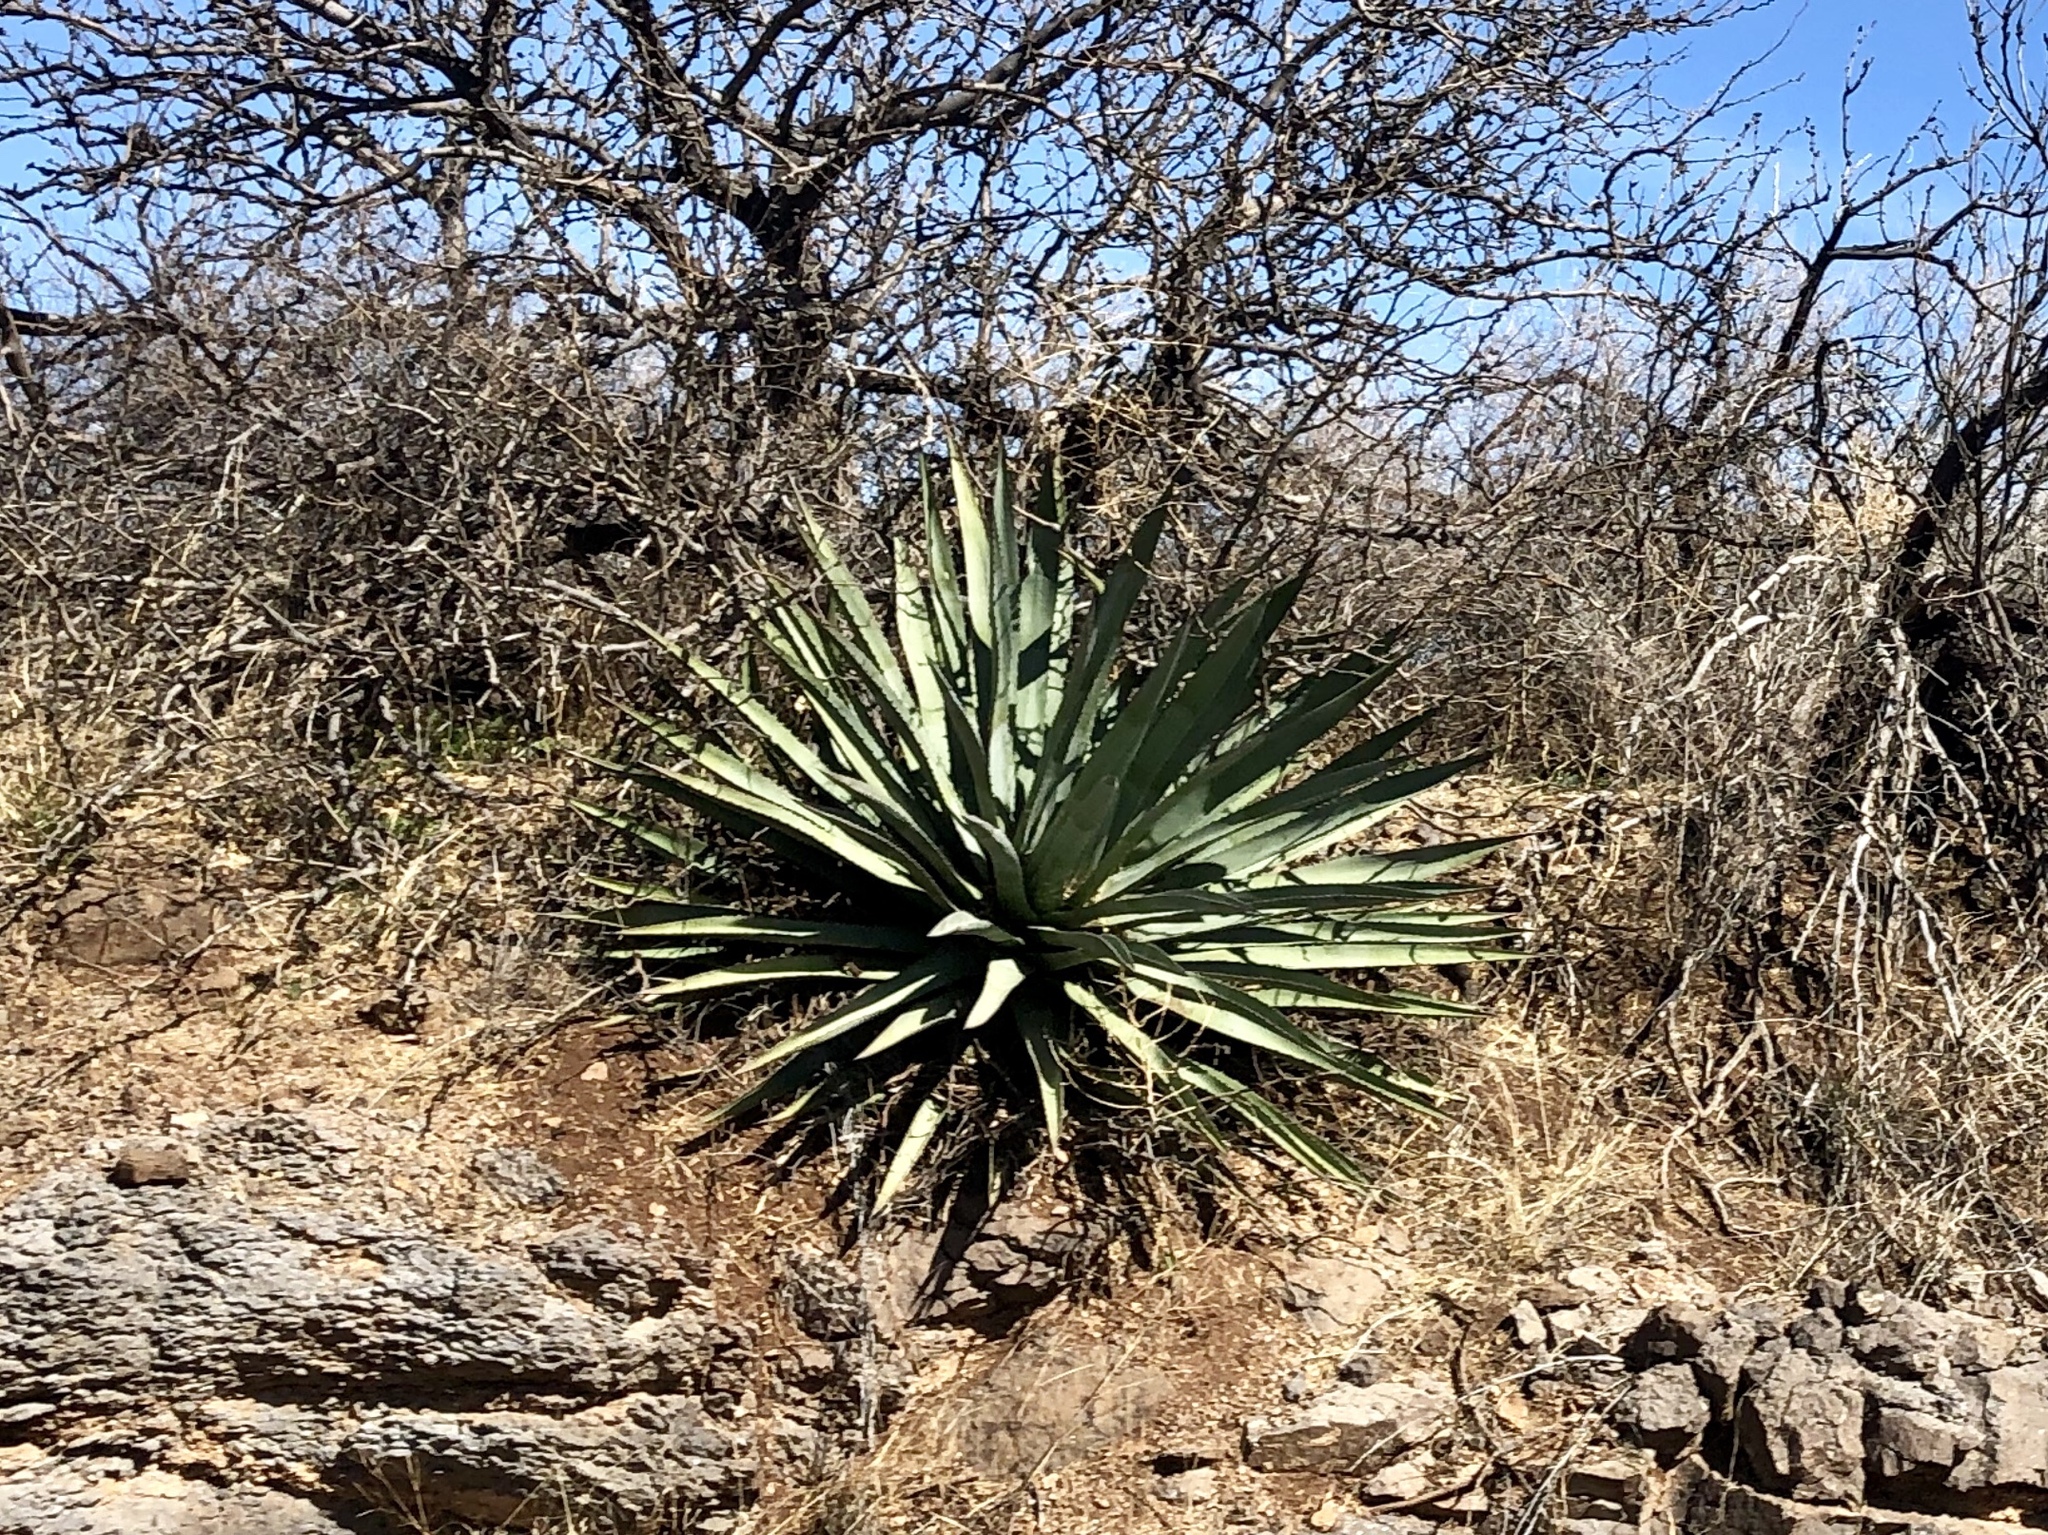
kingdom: Plantae
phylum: Tracheophyta
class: Liliopsida
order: Asparagales
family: Asparagaceae
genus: Agave
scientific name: Agave palmeri
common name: Palmer agave
